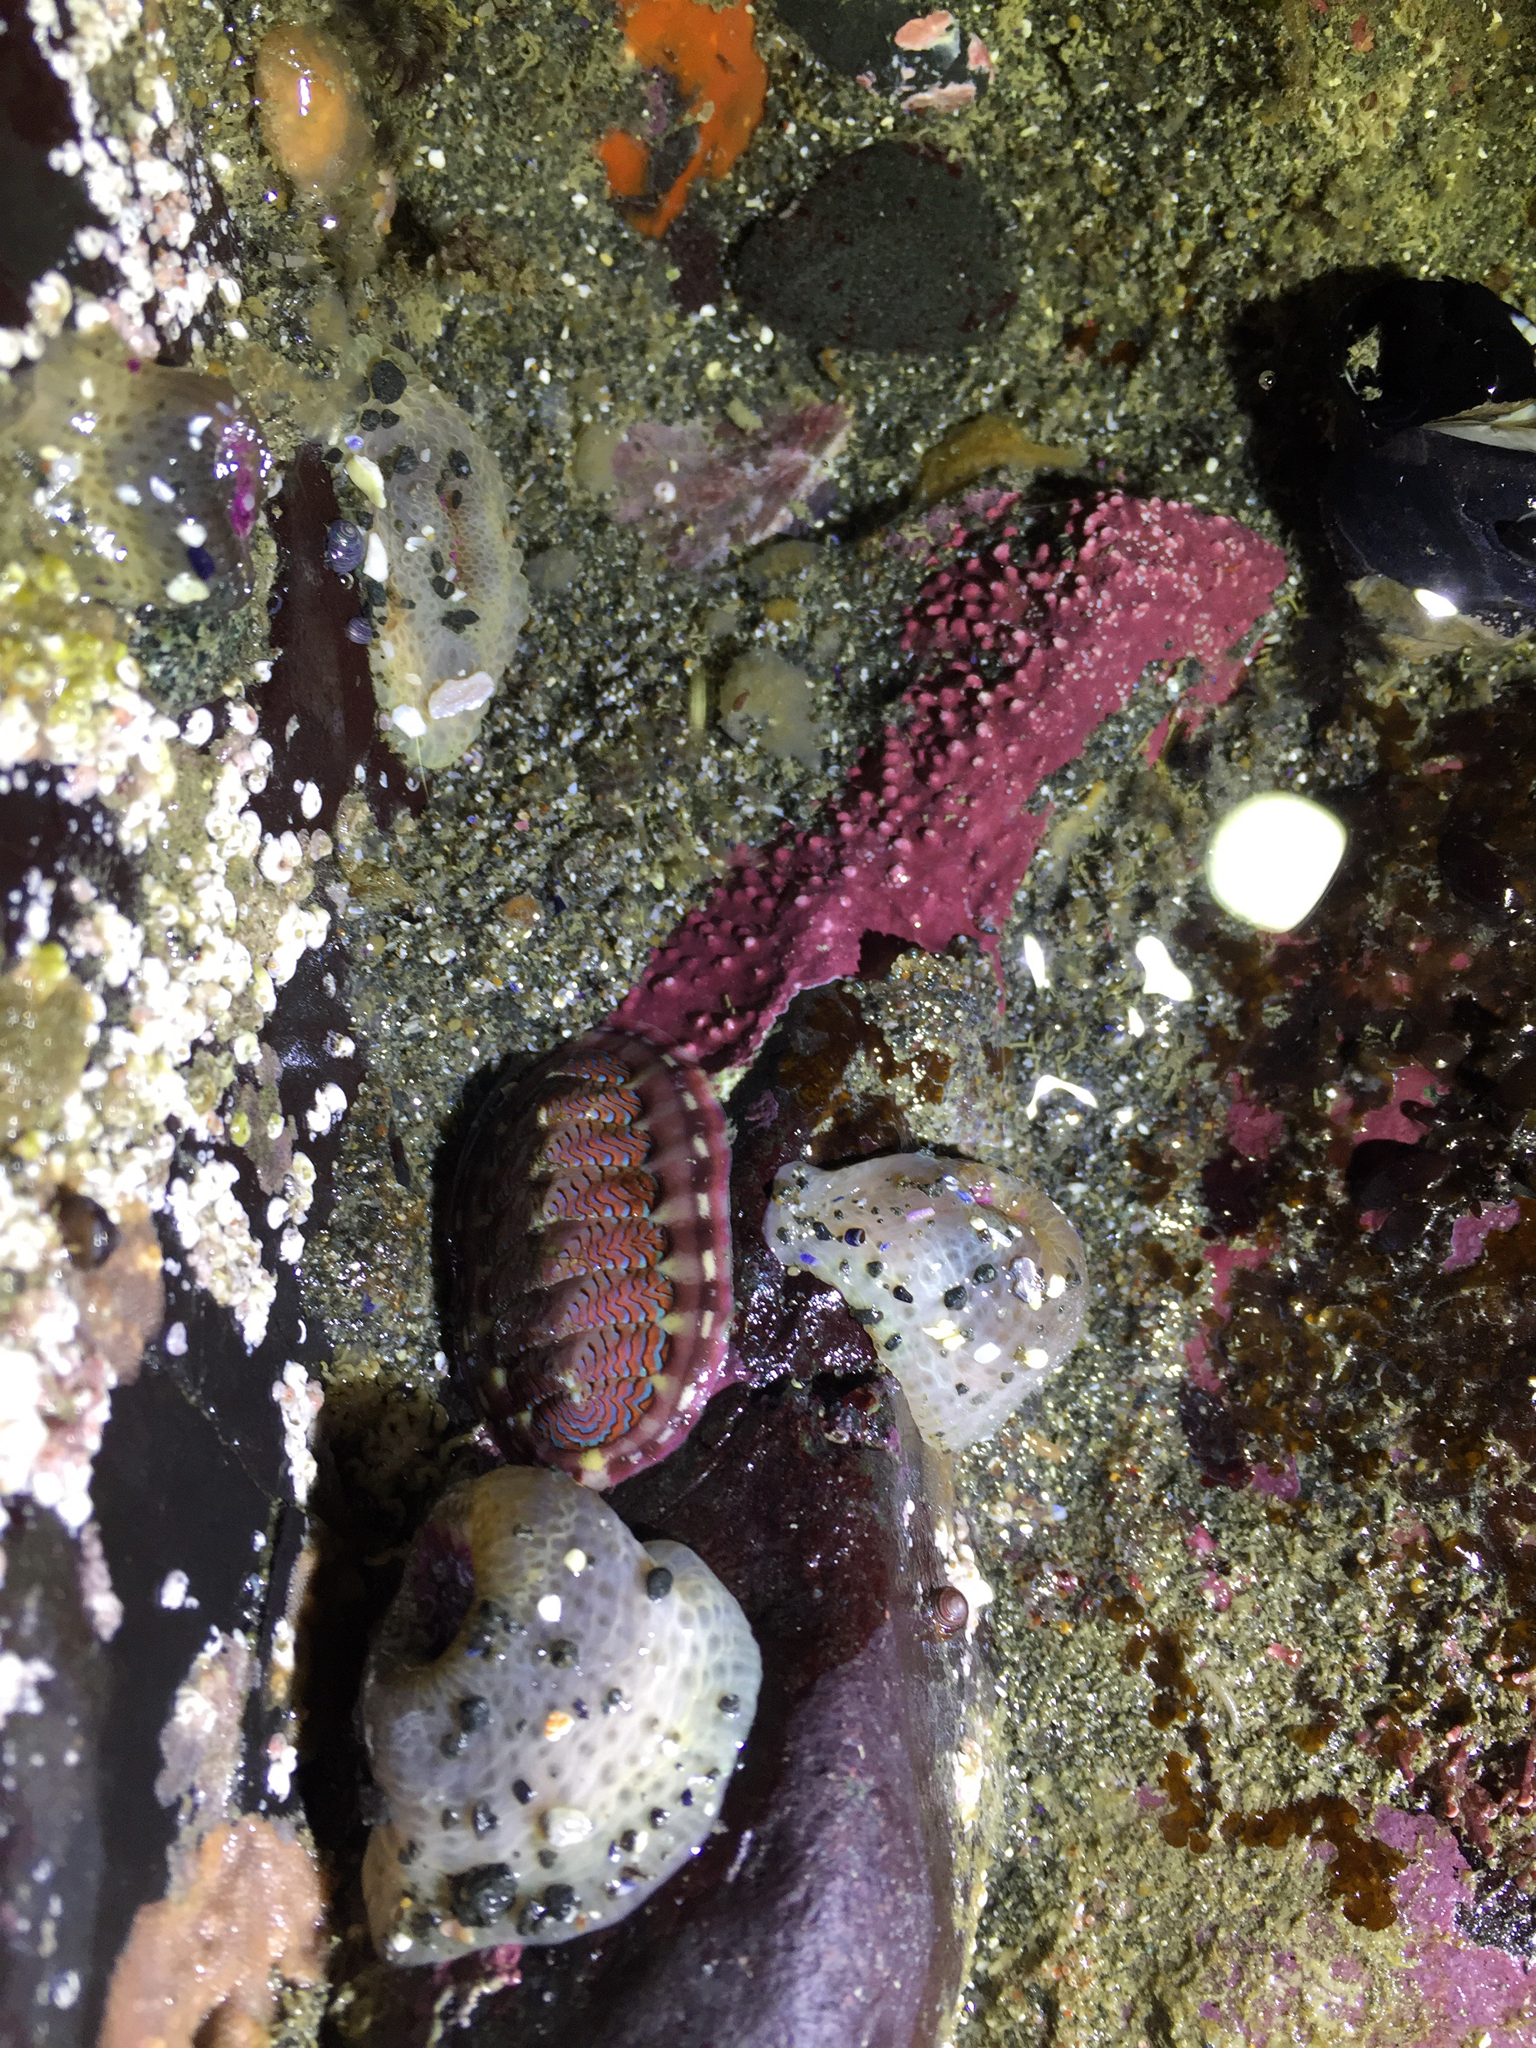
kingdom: Animalia
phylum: Mollusca
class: Polyplacophora
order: Chitonida
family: Tonicellidae
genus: Tonicella
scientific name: Tonicella lokii
